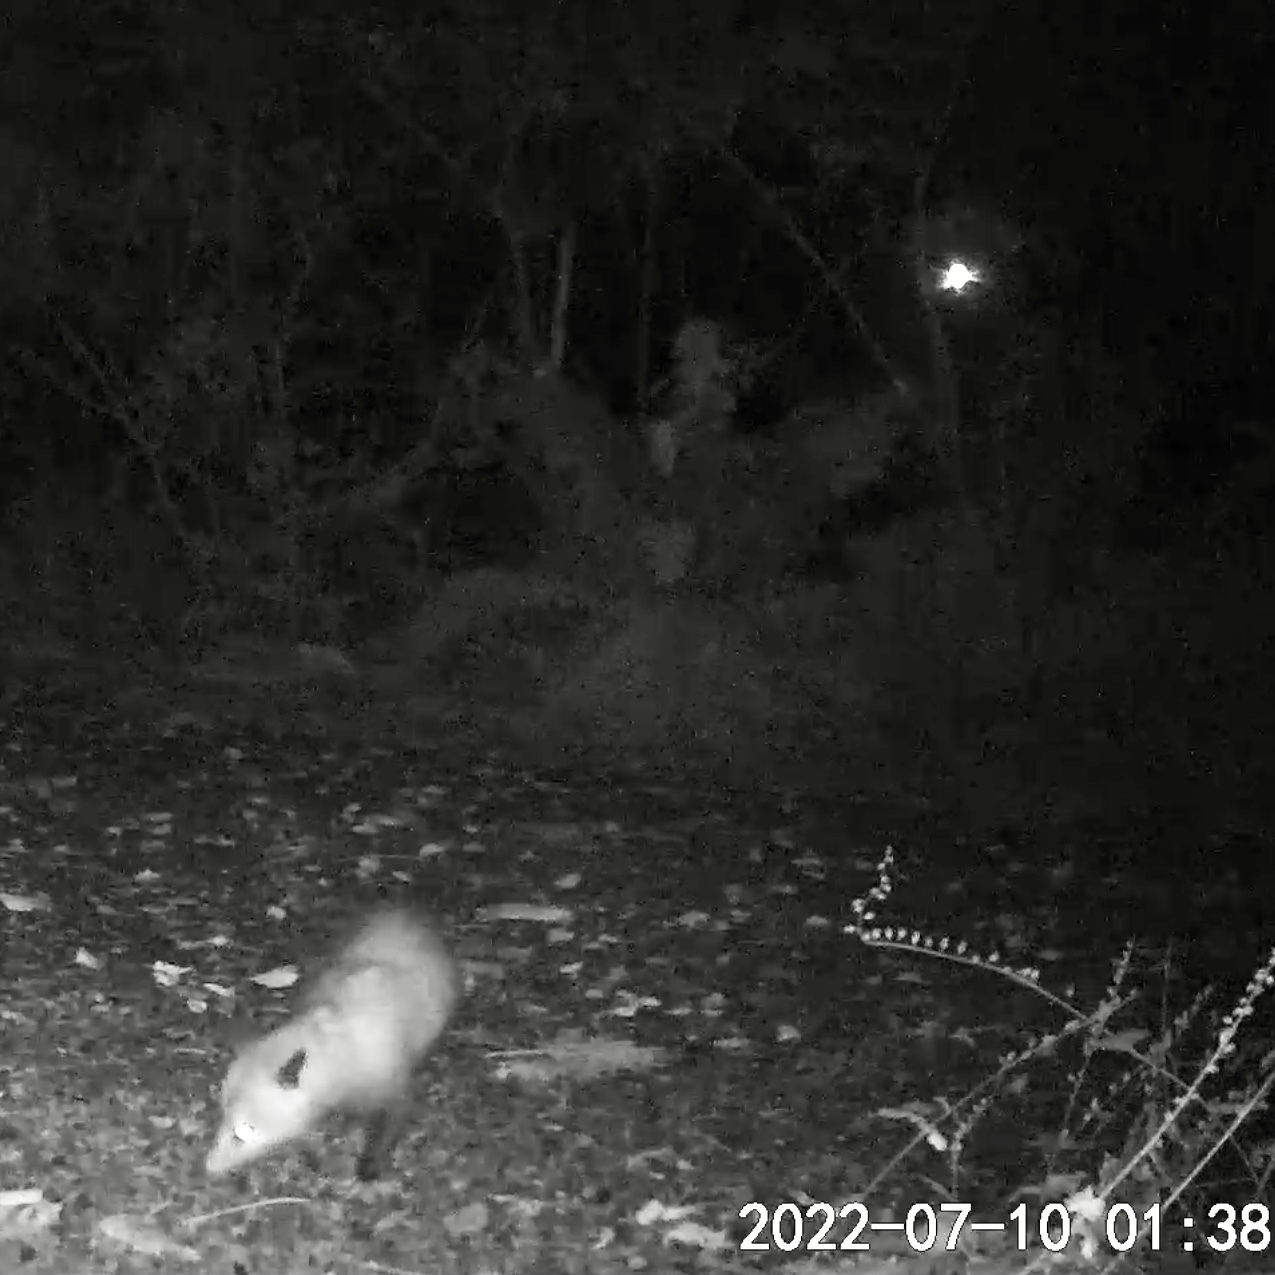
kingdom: Animalia
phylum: Chordata
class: Mammalia
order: Didelphimorphia
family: Didelphidae
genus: Didelphis
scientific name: Didelphis virginiana
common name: Virginia opossum
